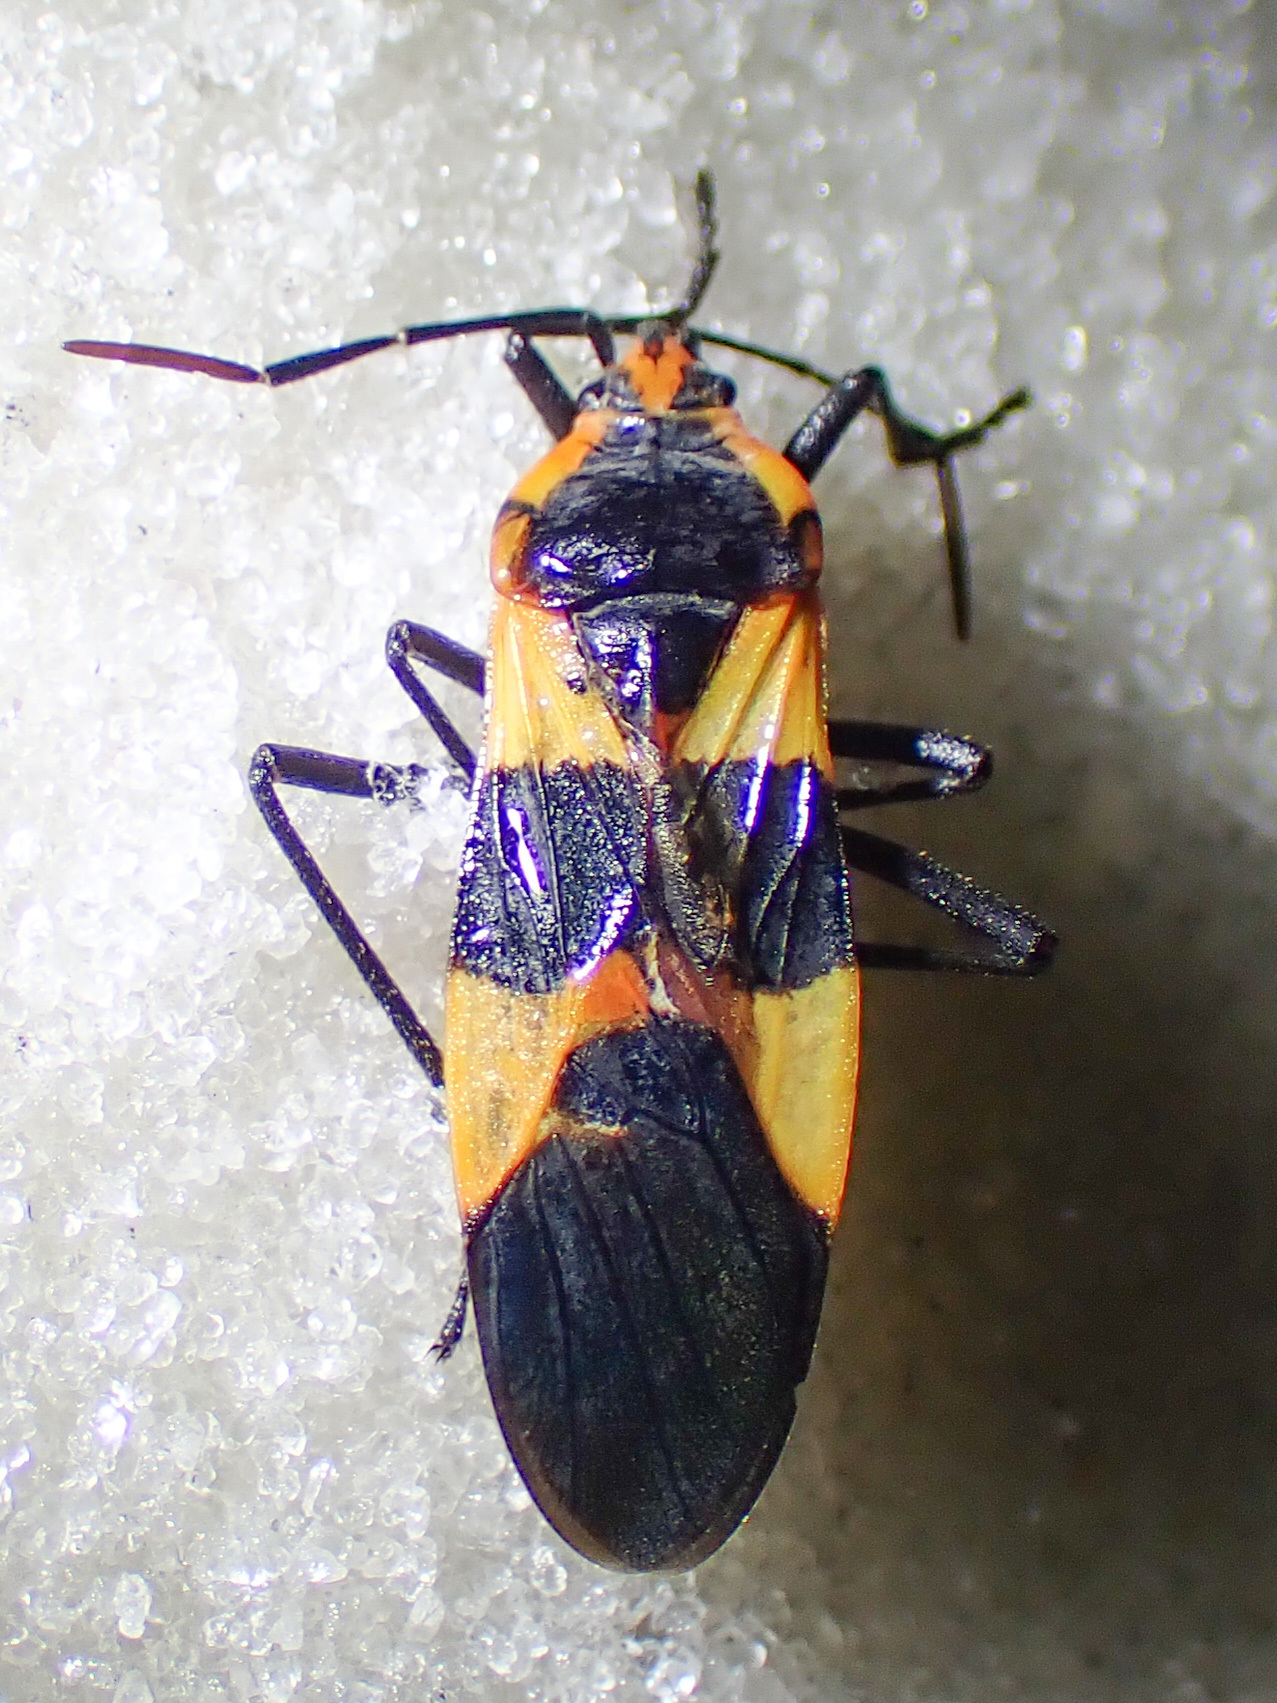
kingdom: Animalia
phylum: Arthropoda
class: Insecta
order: Hemiptera
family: Lygaeidae
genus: Oncopeltus
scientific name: Oncopeltus fasciatus
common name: Large milkweed bug
